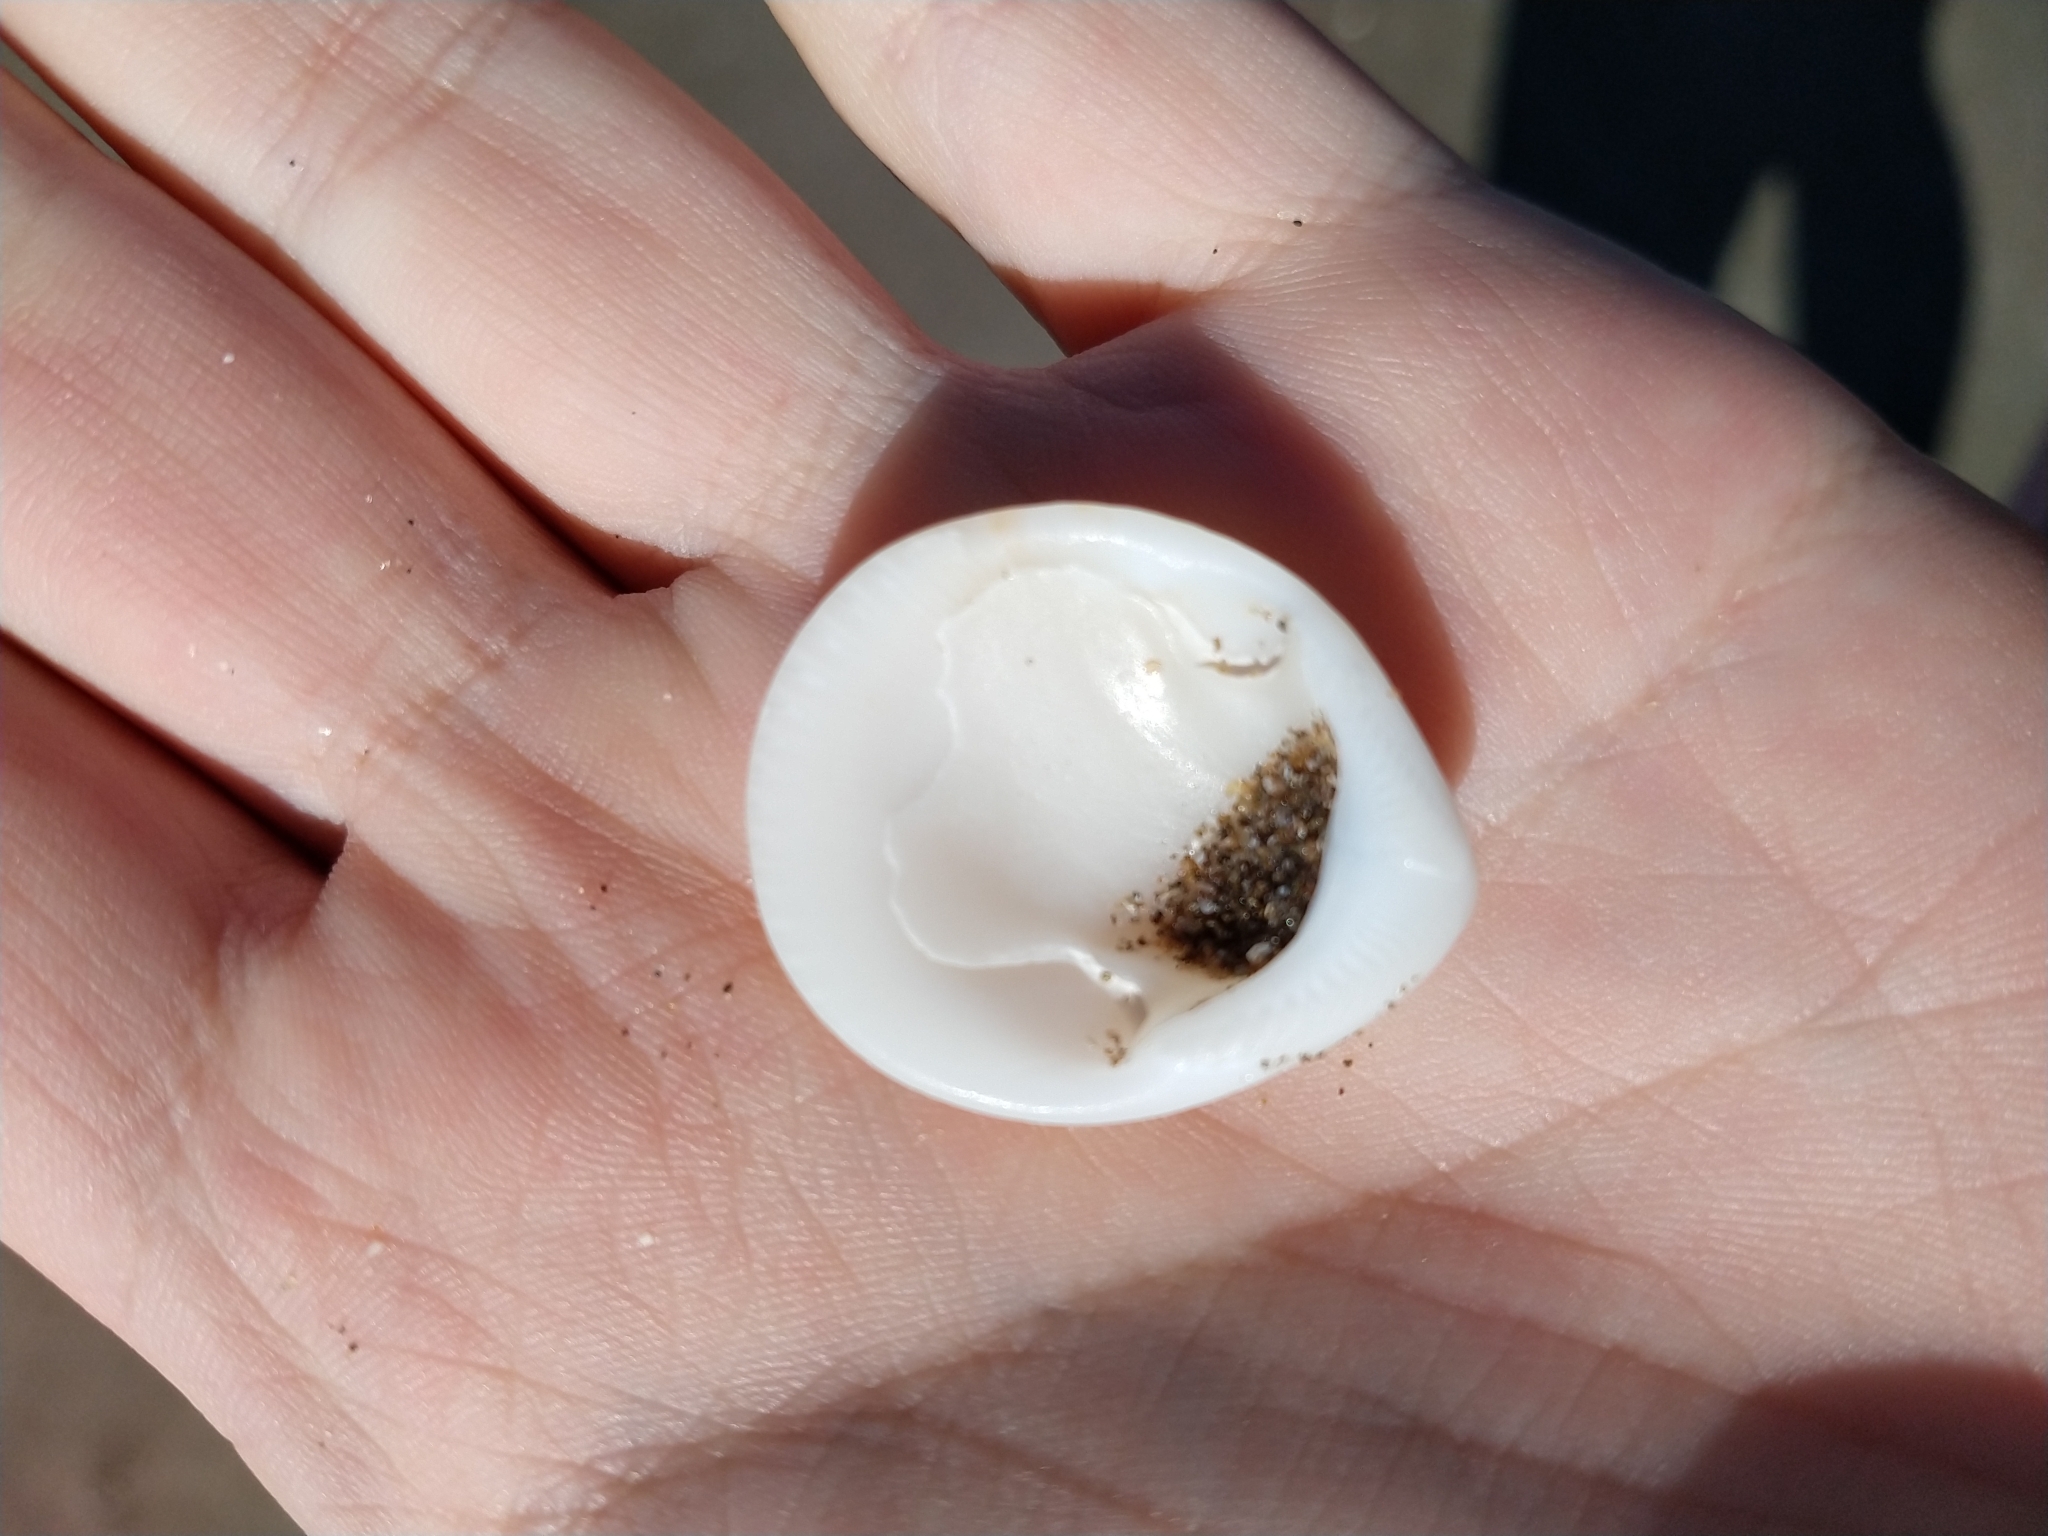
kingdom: Animalia
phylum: Mollusca
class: Bivalvia
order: Arcida
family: Glycymerididae
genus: Glycymeris
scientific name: Glycymeris longior
